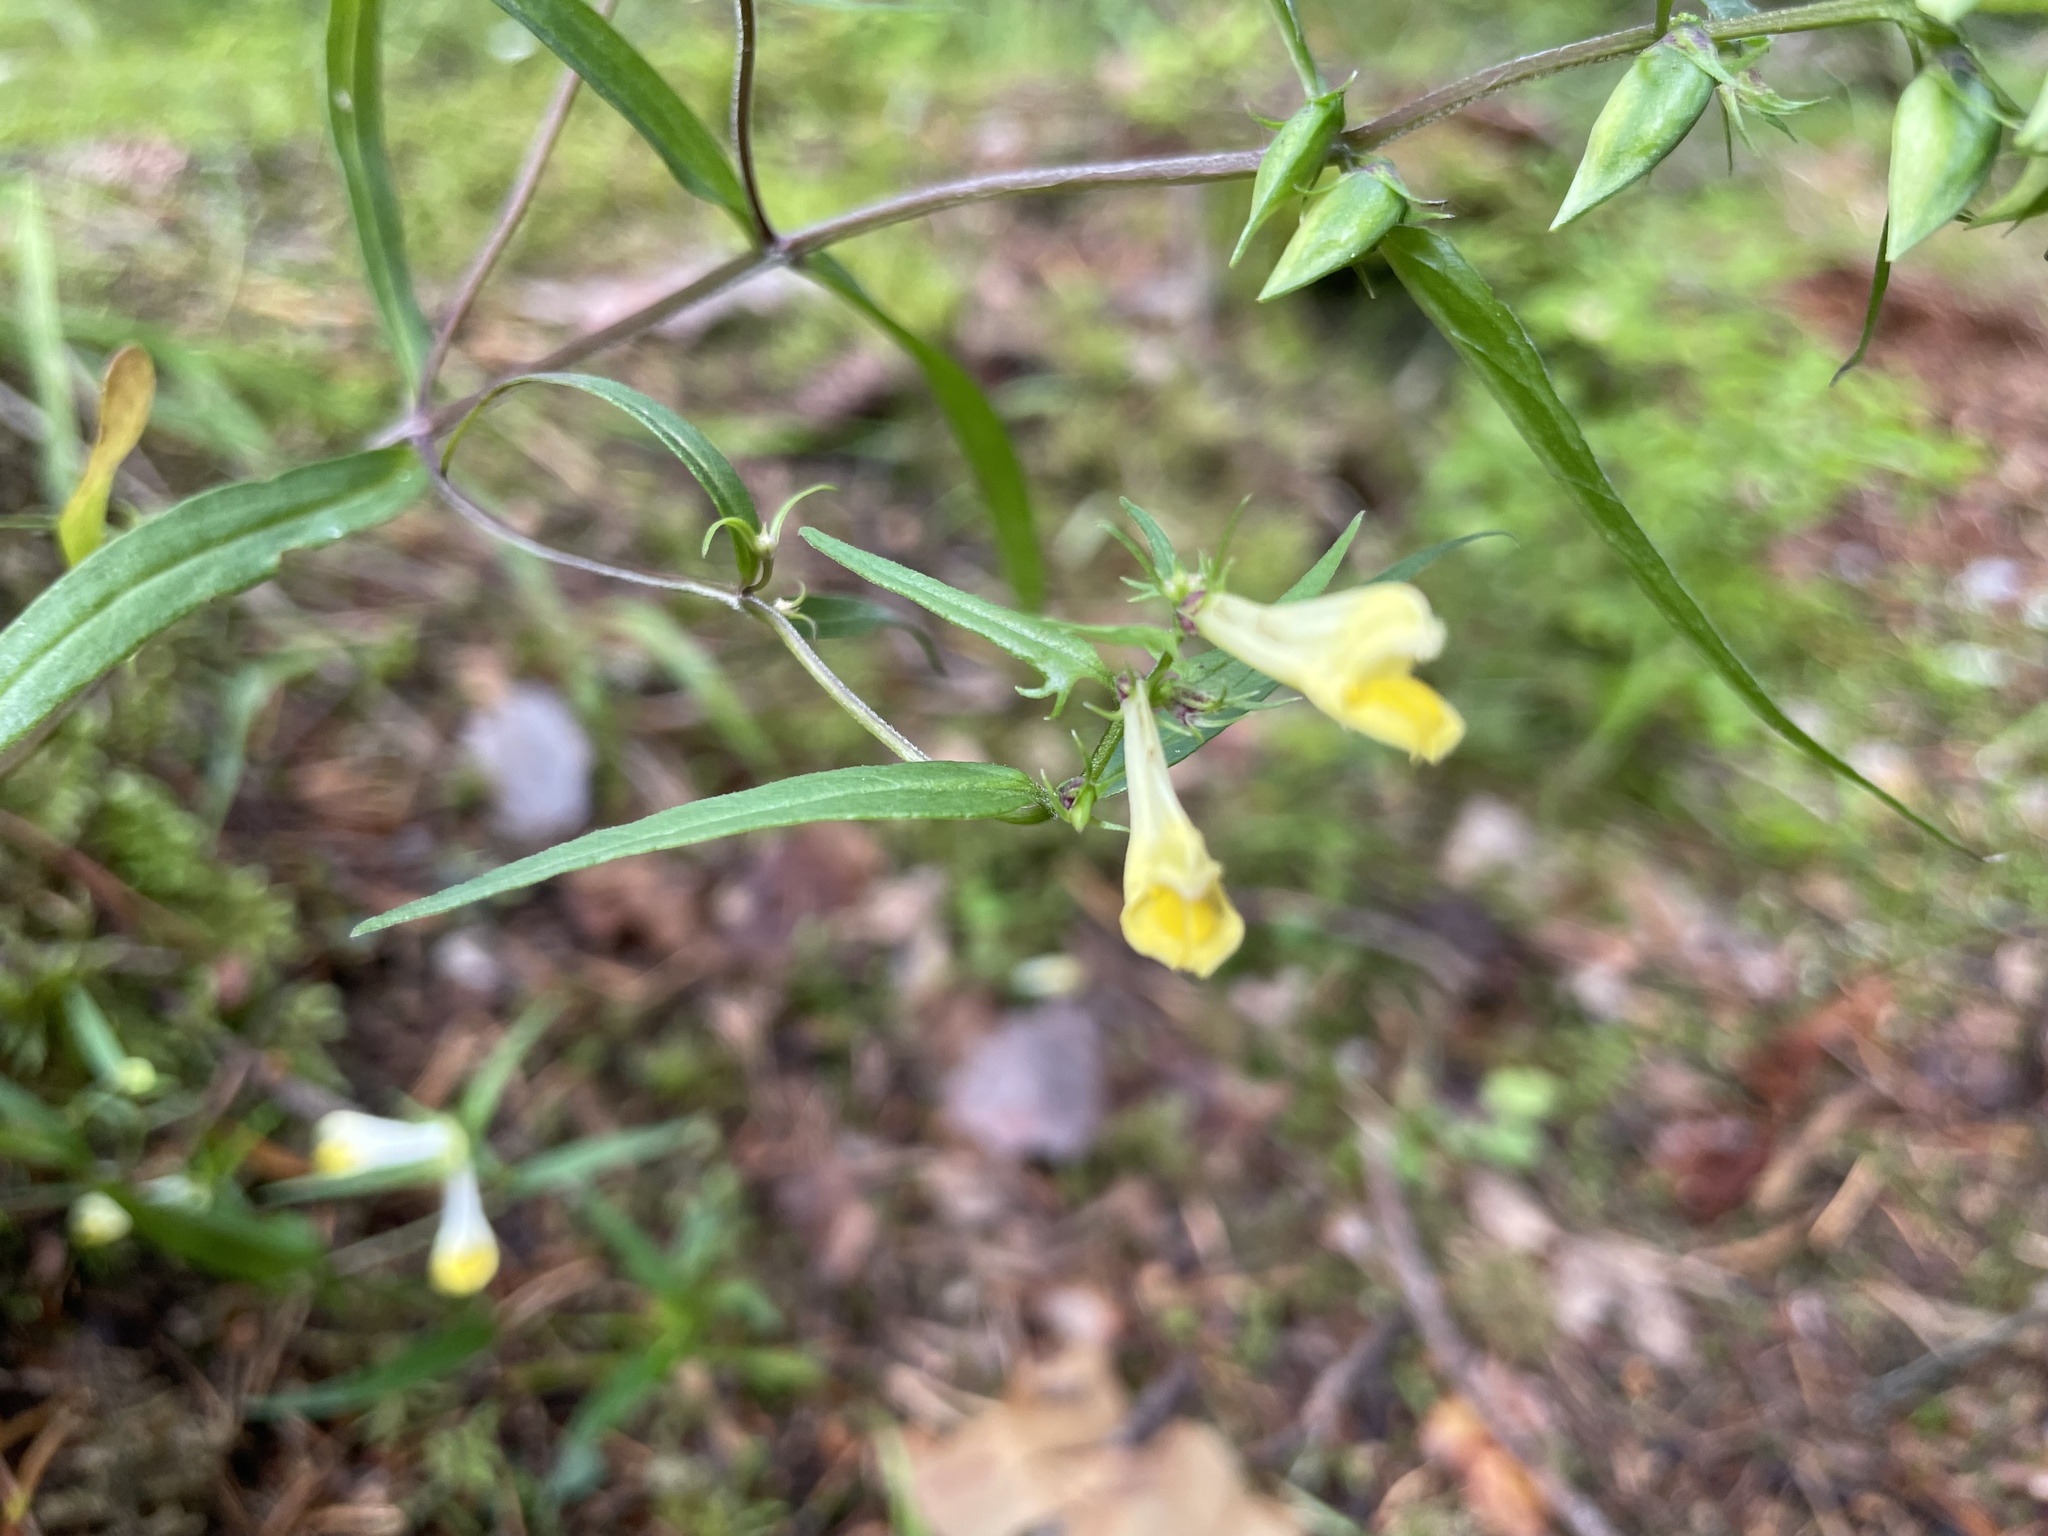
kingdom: Plantae
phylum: Tracheophyta
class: Magnoliopsida
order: Lamiales
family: Orobanchaceae
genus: Melampyrum
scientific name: Melampyrum pratense
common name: Common cow-wheat
